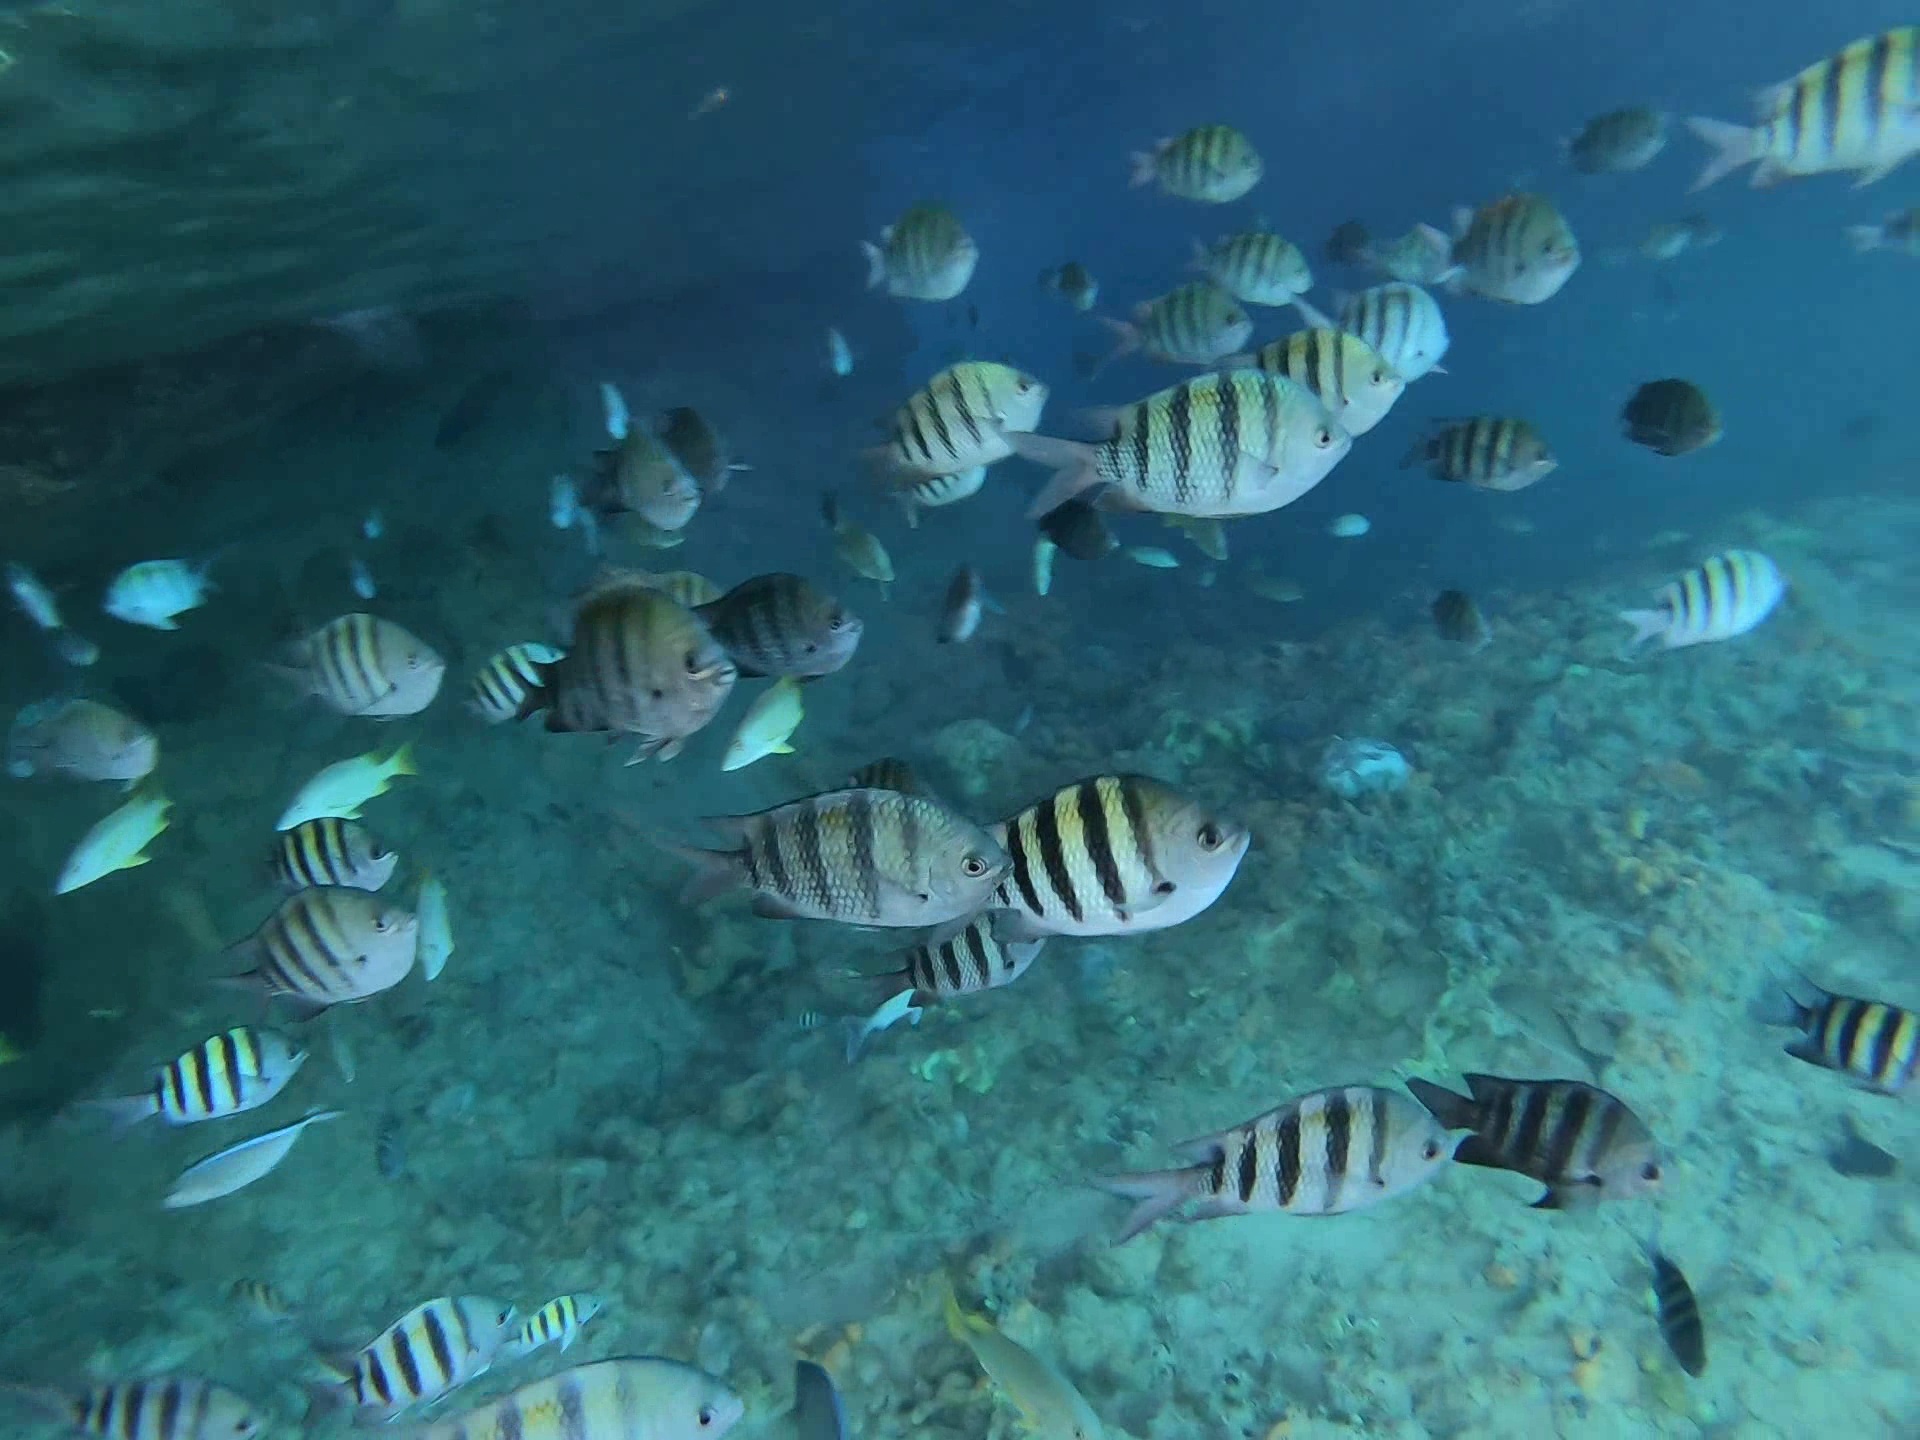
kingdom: Animalia
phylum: Chordata
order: Perciformes
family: Pomacentridae
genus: Abudefduf
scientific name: Abudefduf saxatilis
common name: Sergeant major
